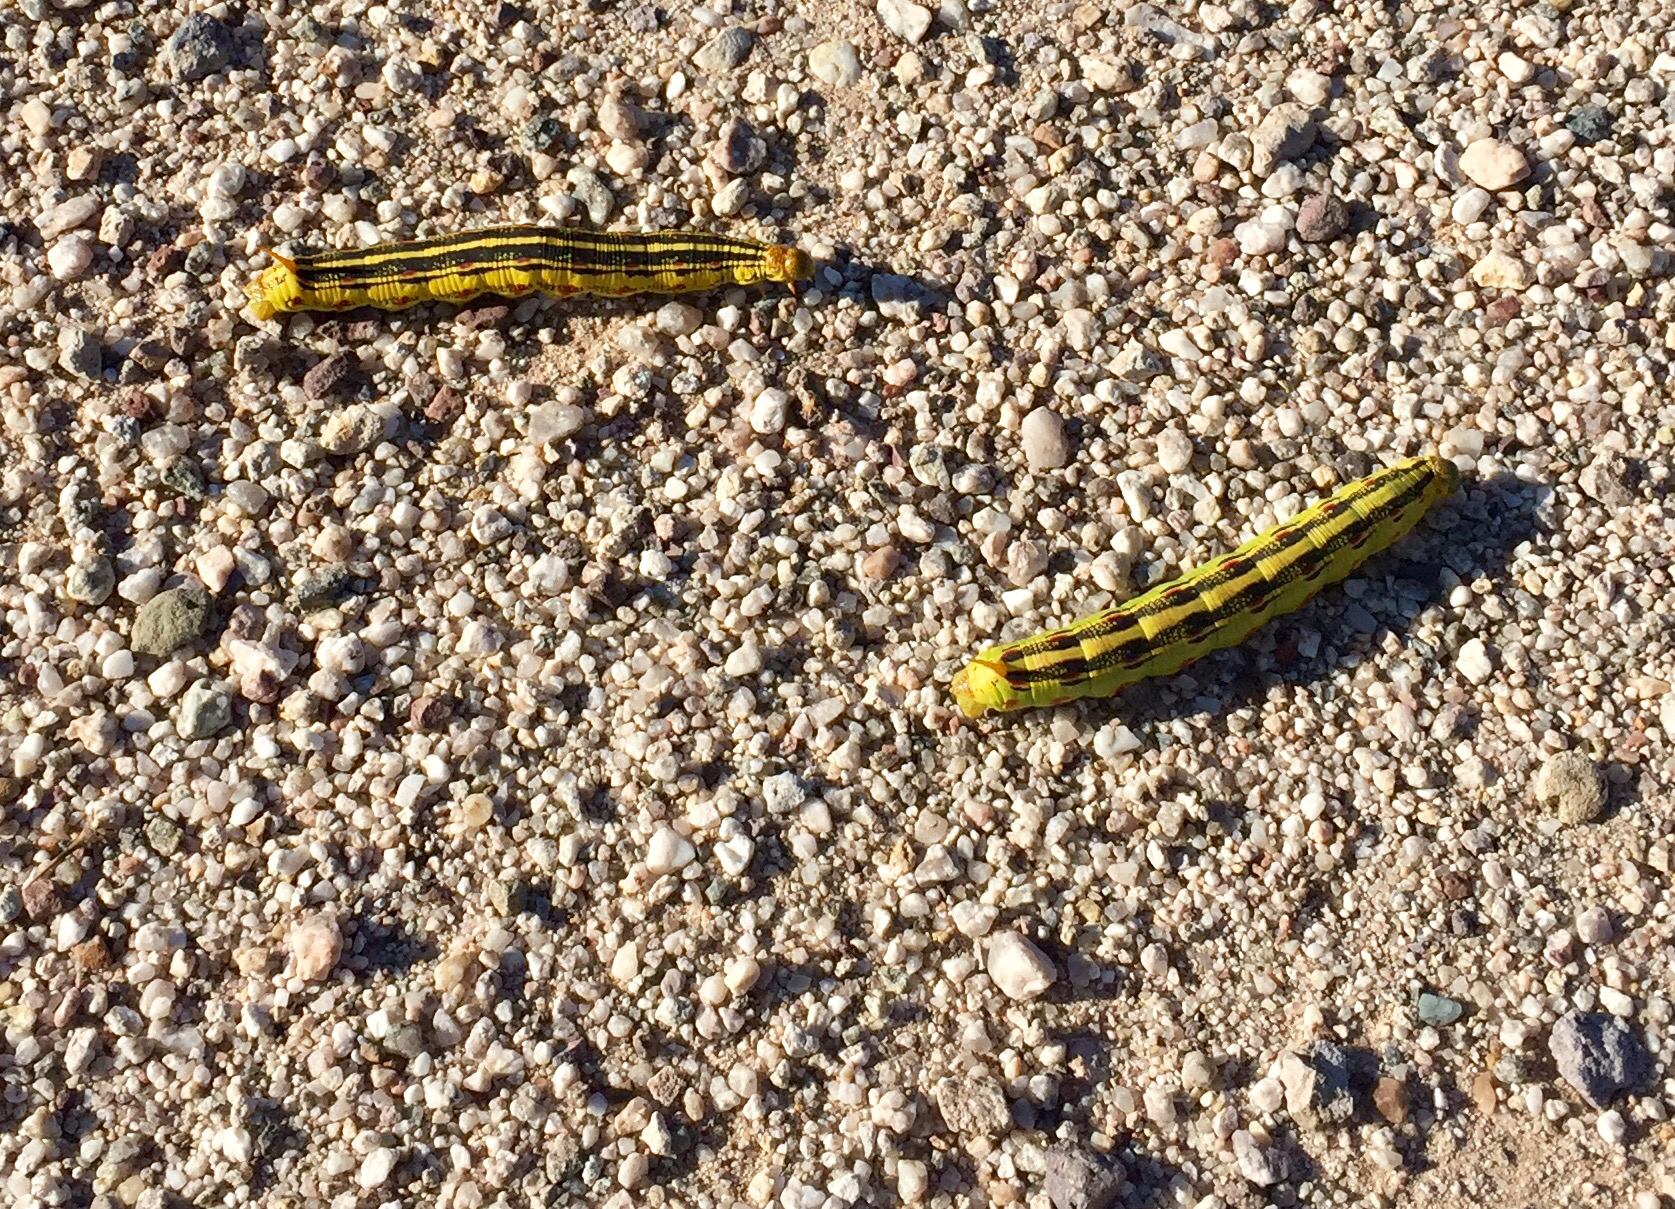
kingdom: Animalia
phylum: Arthropoda
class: Insecta
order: Lepidoptera
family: Sphingidae
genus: Hyles
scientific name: Hyles lineata
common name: White-lined sphinx
